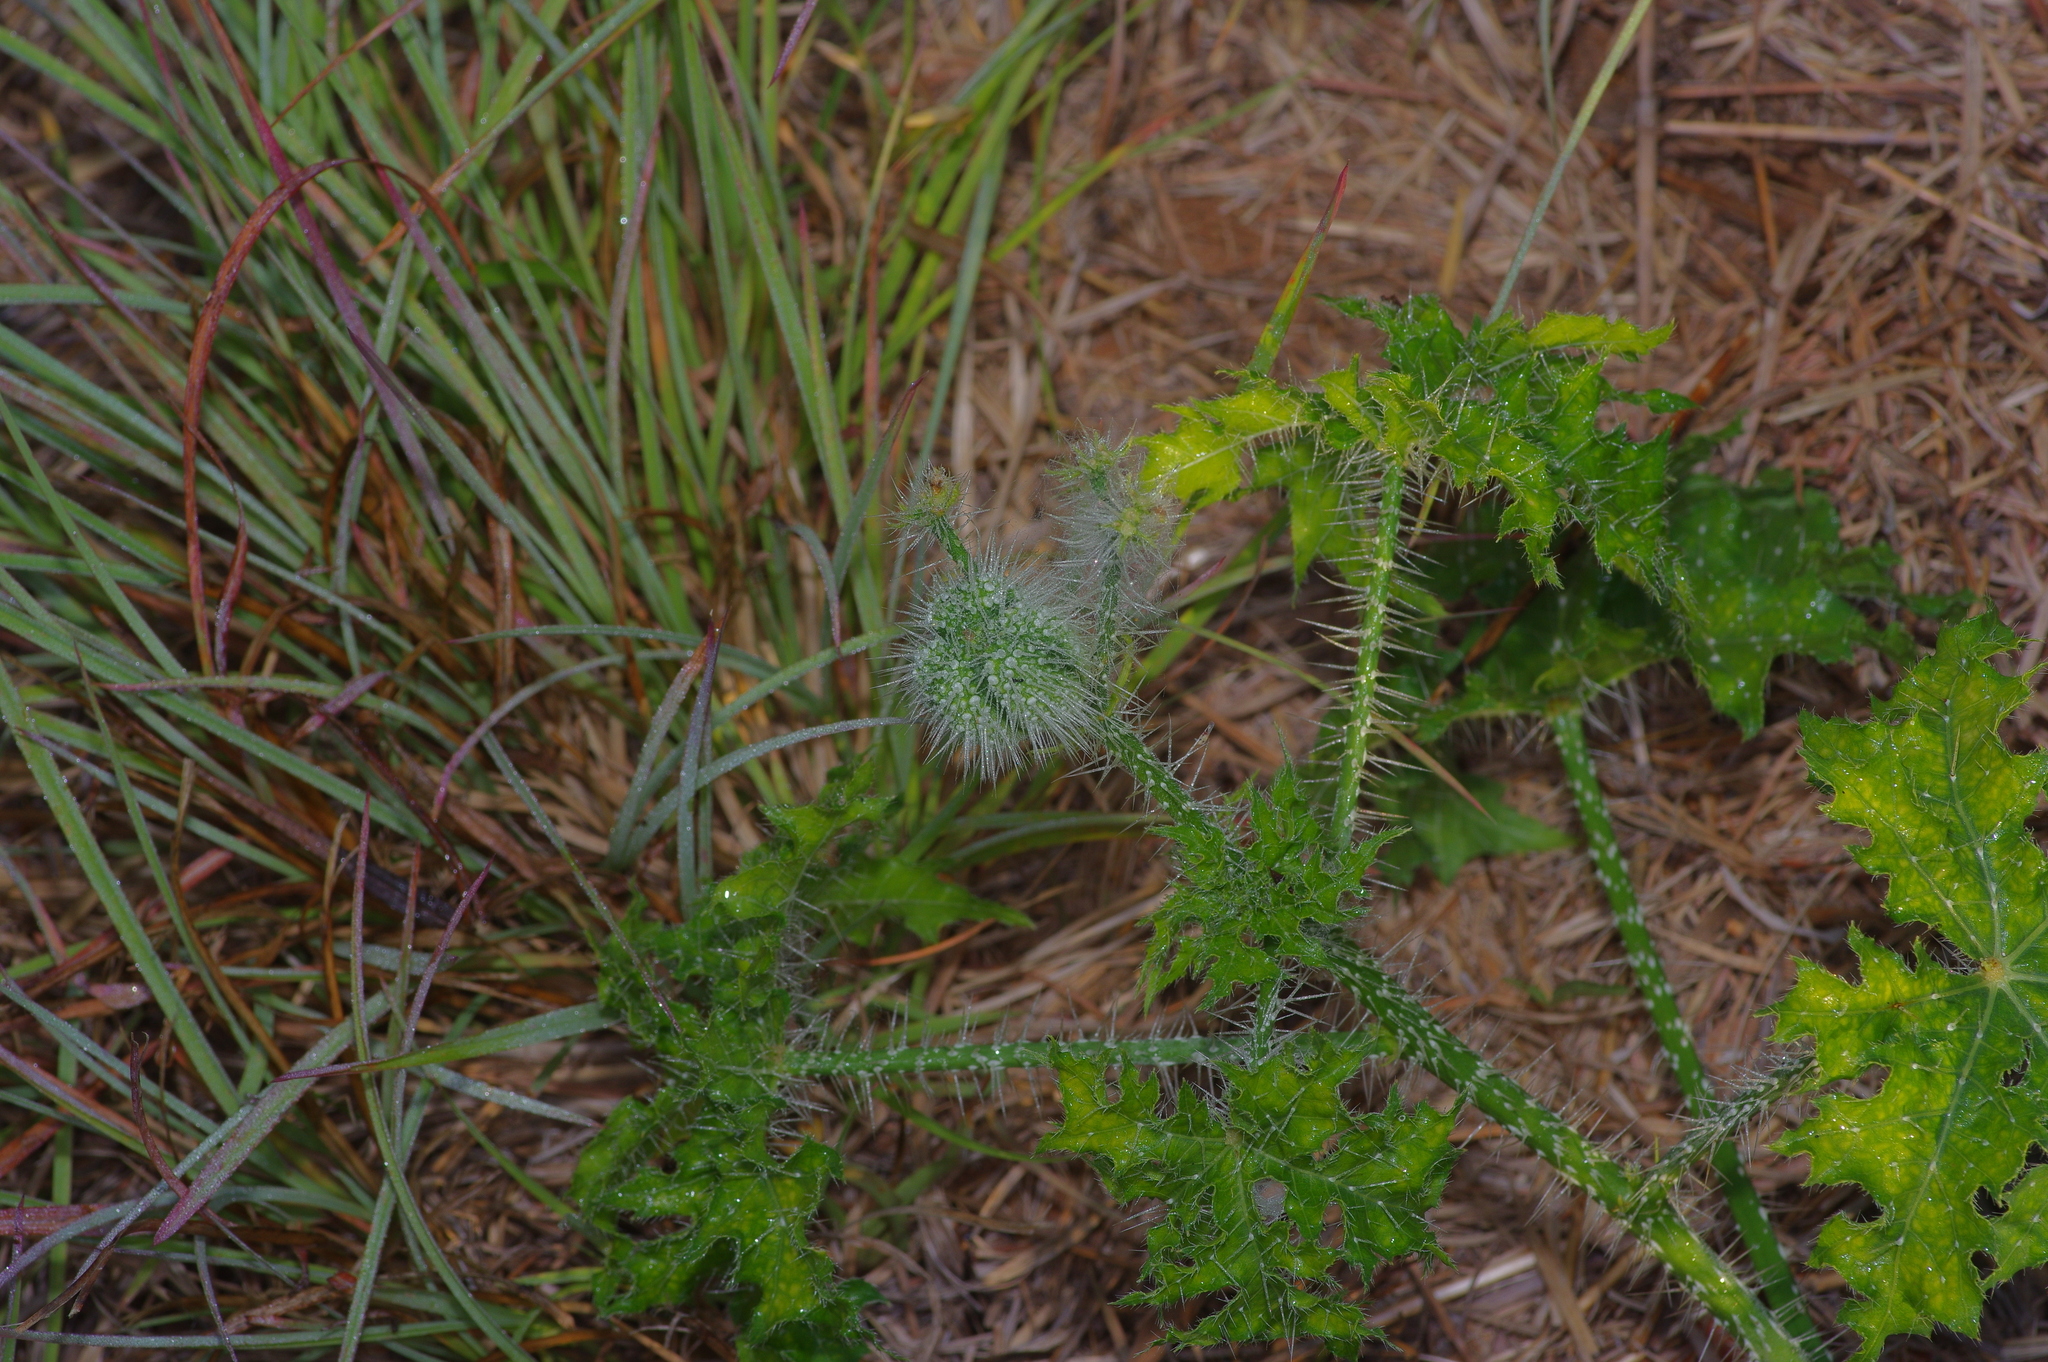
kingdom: Plantae
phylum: Tracheophyta
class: Magnoliopsida
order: Malpighiales
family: Euphorbiaceae
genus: Cnidoscolus
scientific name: Cnidoscolus texanus
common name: Texas bull-nettle
